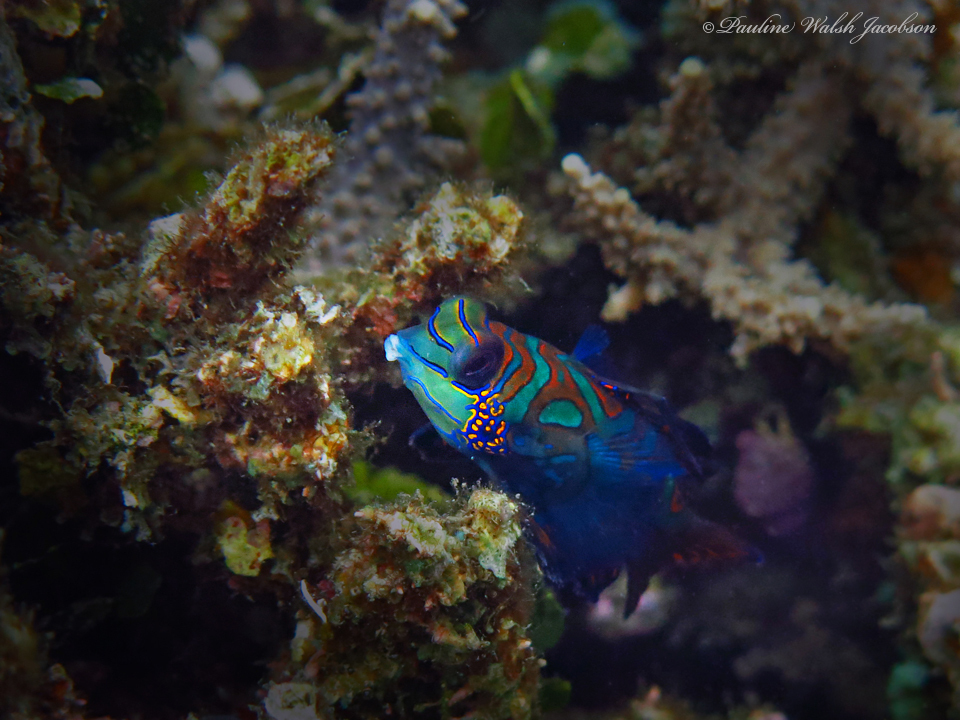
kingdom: Animalia
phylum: Chordata
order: Perciformes
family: Callionymidae
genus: Synchiropus
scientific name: Synchiropus splendidus
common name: Mandarinfish
